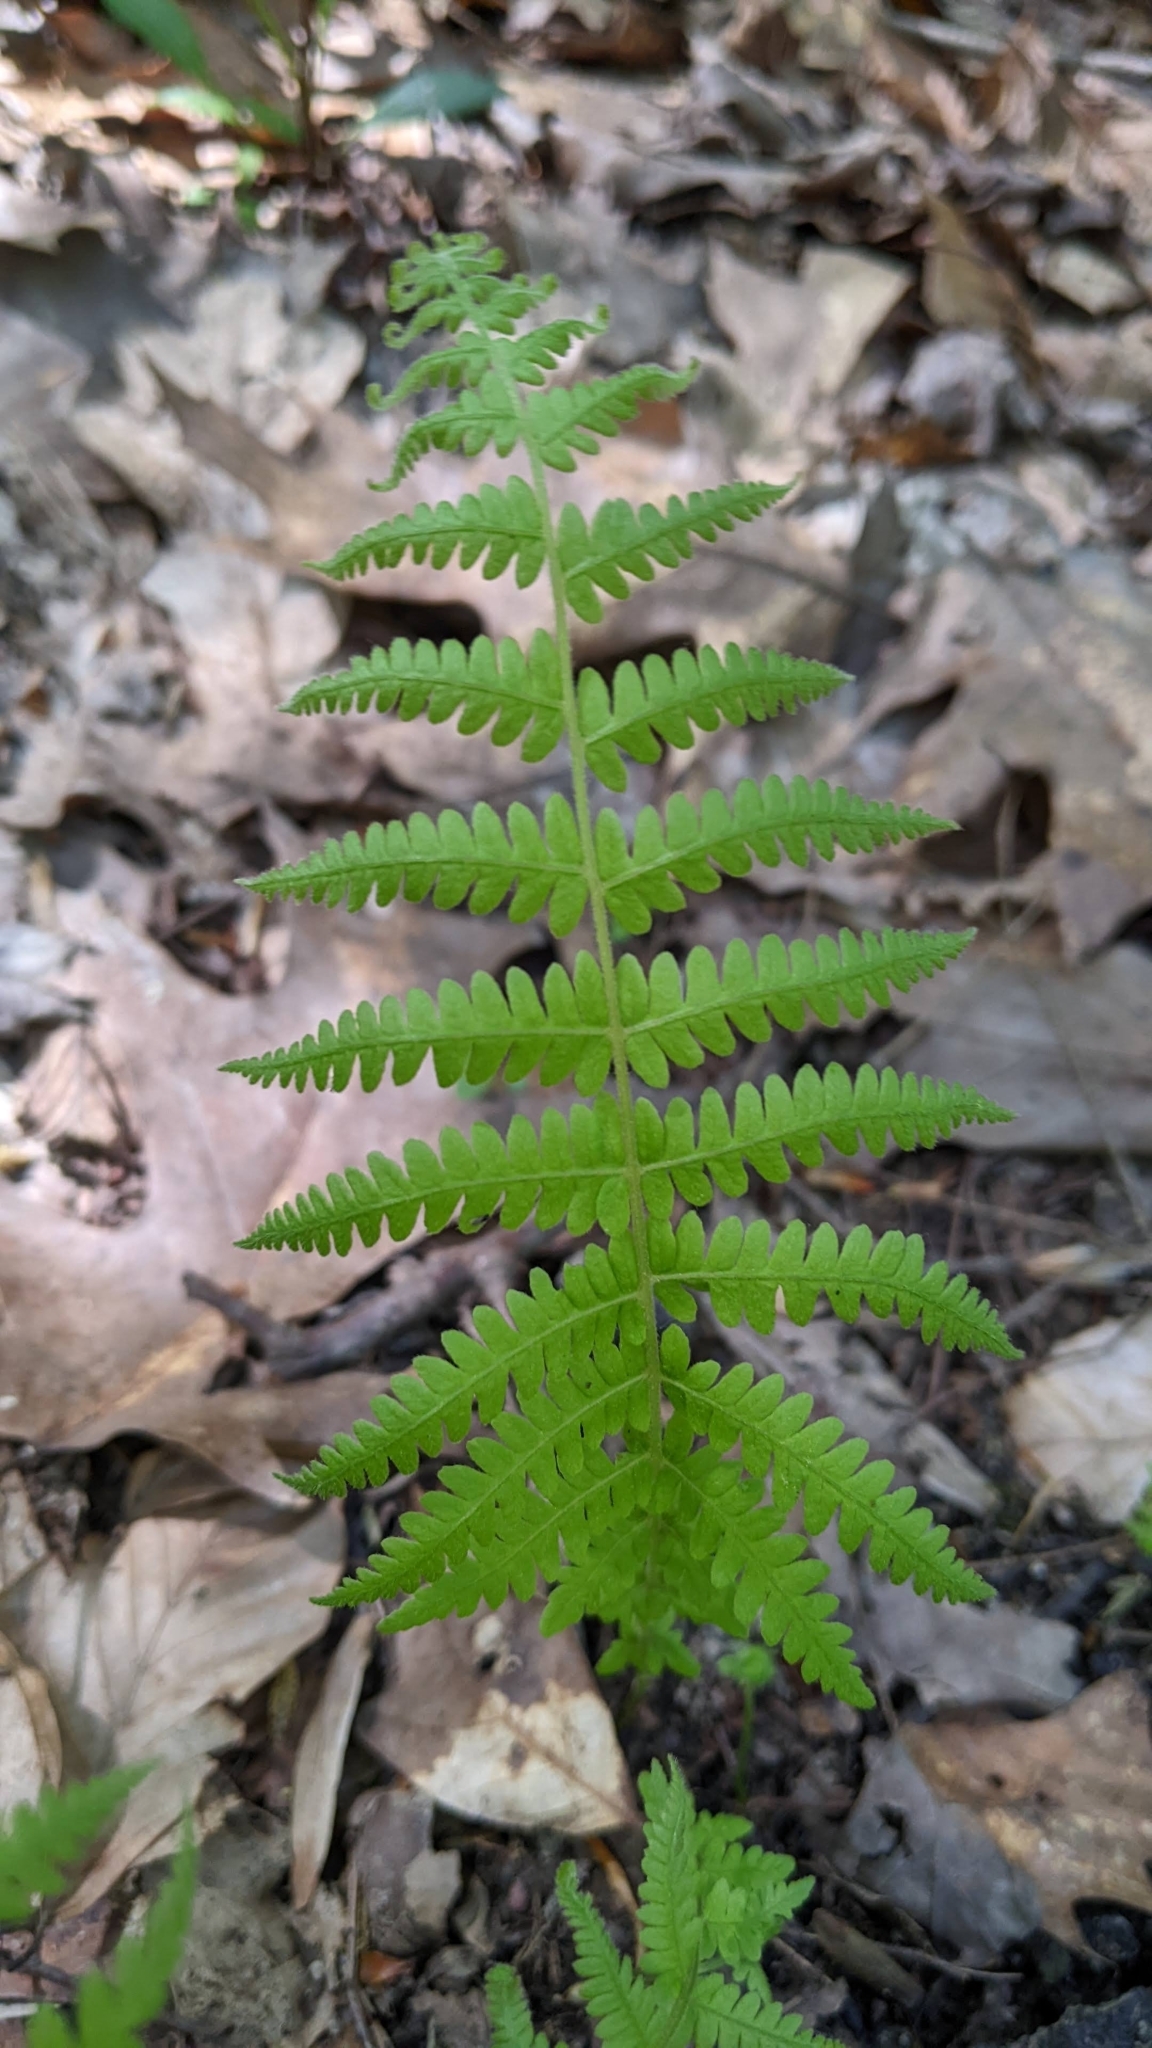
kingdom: Plantae
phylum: Tracheophyta
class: Polypodiopsida
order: Polypodiales
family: Thelypteridaceae
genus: Amauropelta
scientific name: Amauropelta noveboracensis
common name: New york fern
